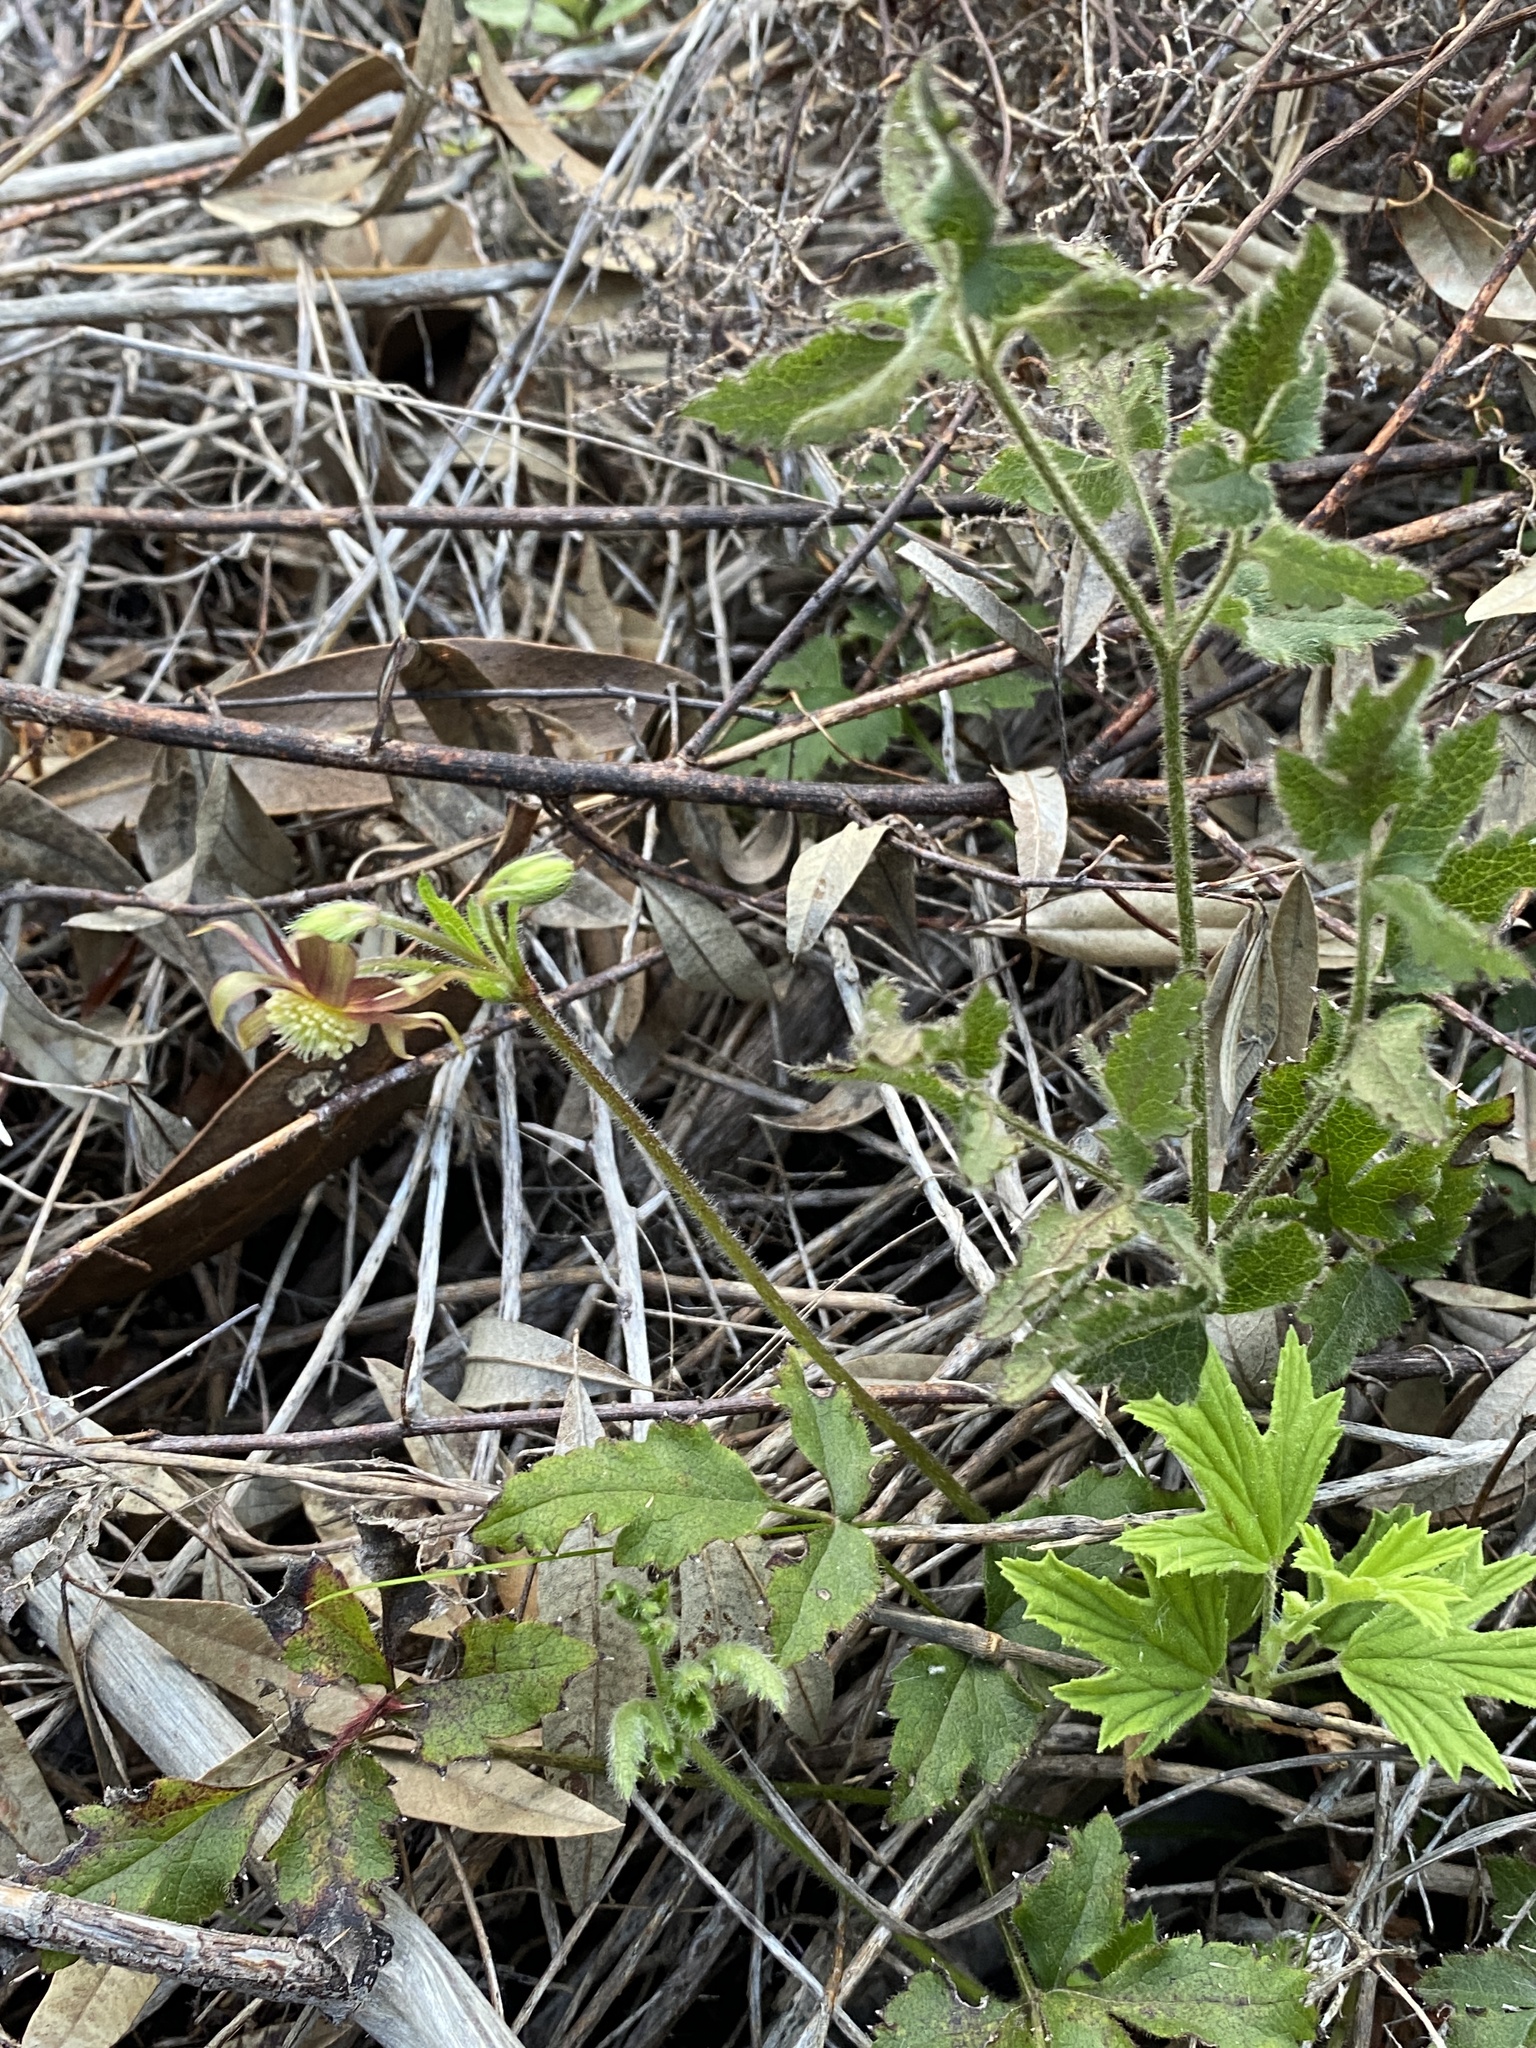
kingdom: Plantae
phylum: Tracheophyta
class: Magnoliopsida
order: Ranunculales
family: Ranunculaceae
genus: Knowltonia
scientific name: Knowltonia capensis
